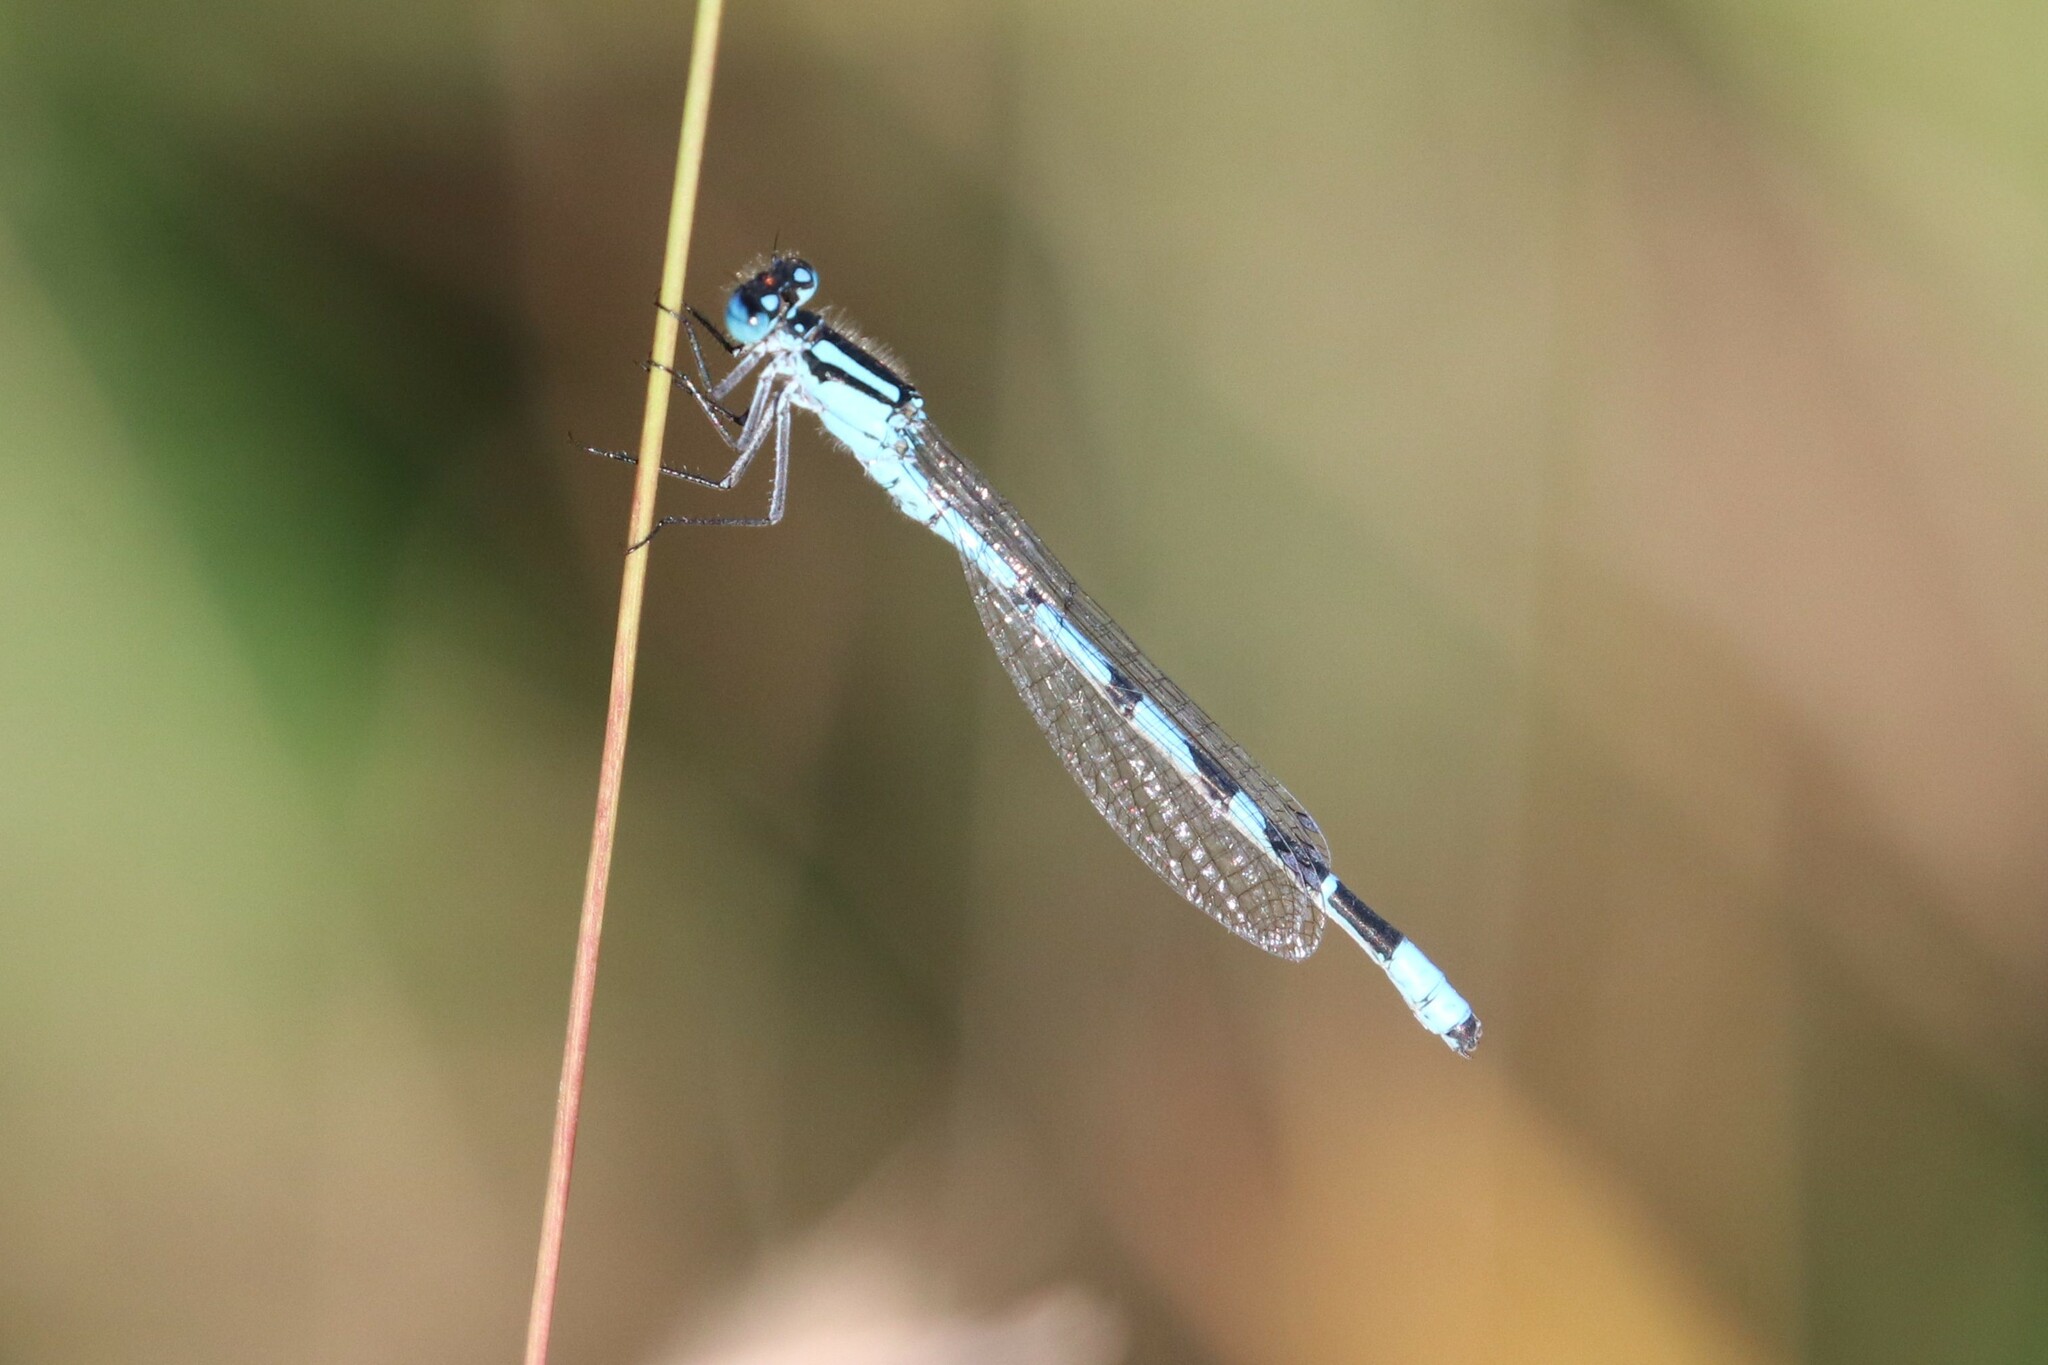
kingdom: Animalia
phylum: Arthropoda
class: Insecta
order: Odonata
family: Coenagrionidae
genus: Enallagma
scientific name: Enallagma cyathigerum
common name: Common blue damselfly
